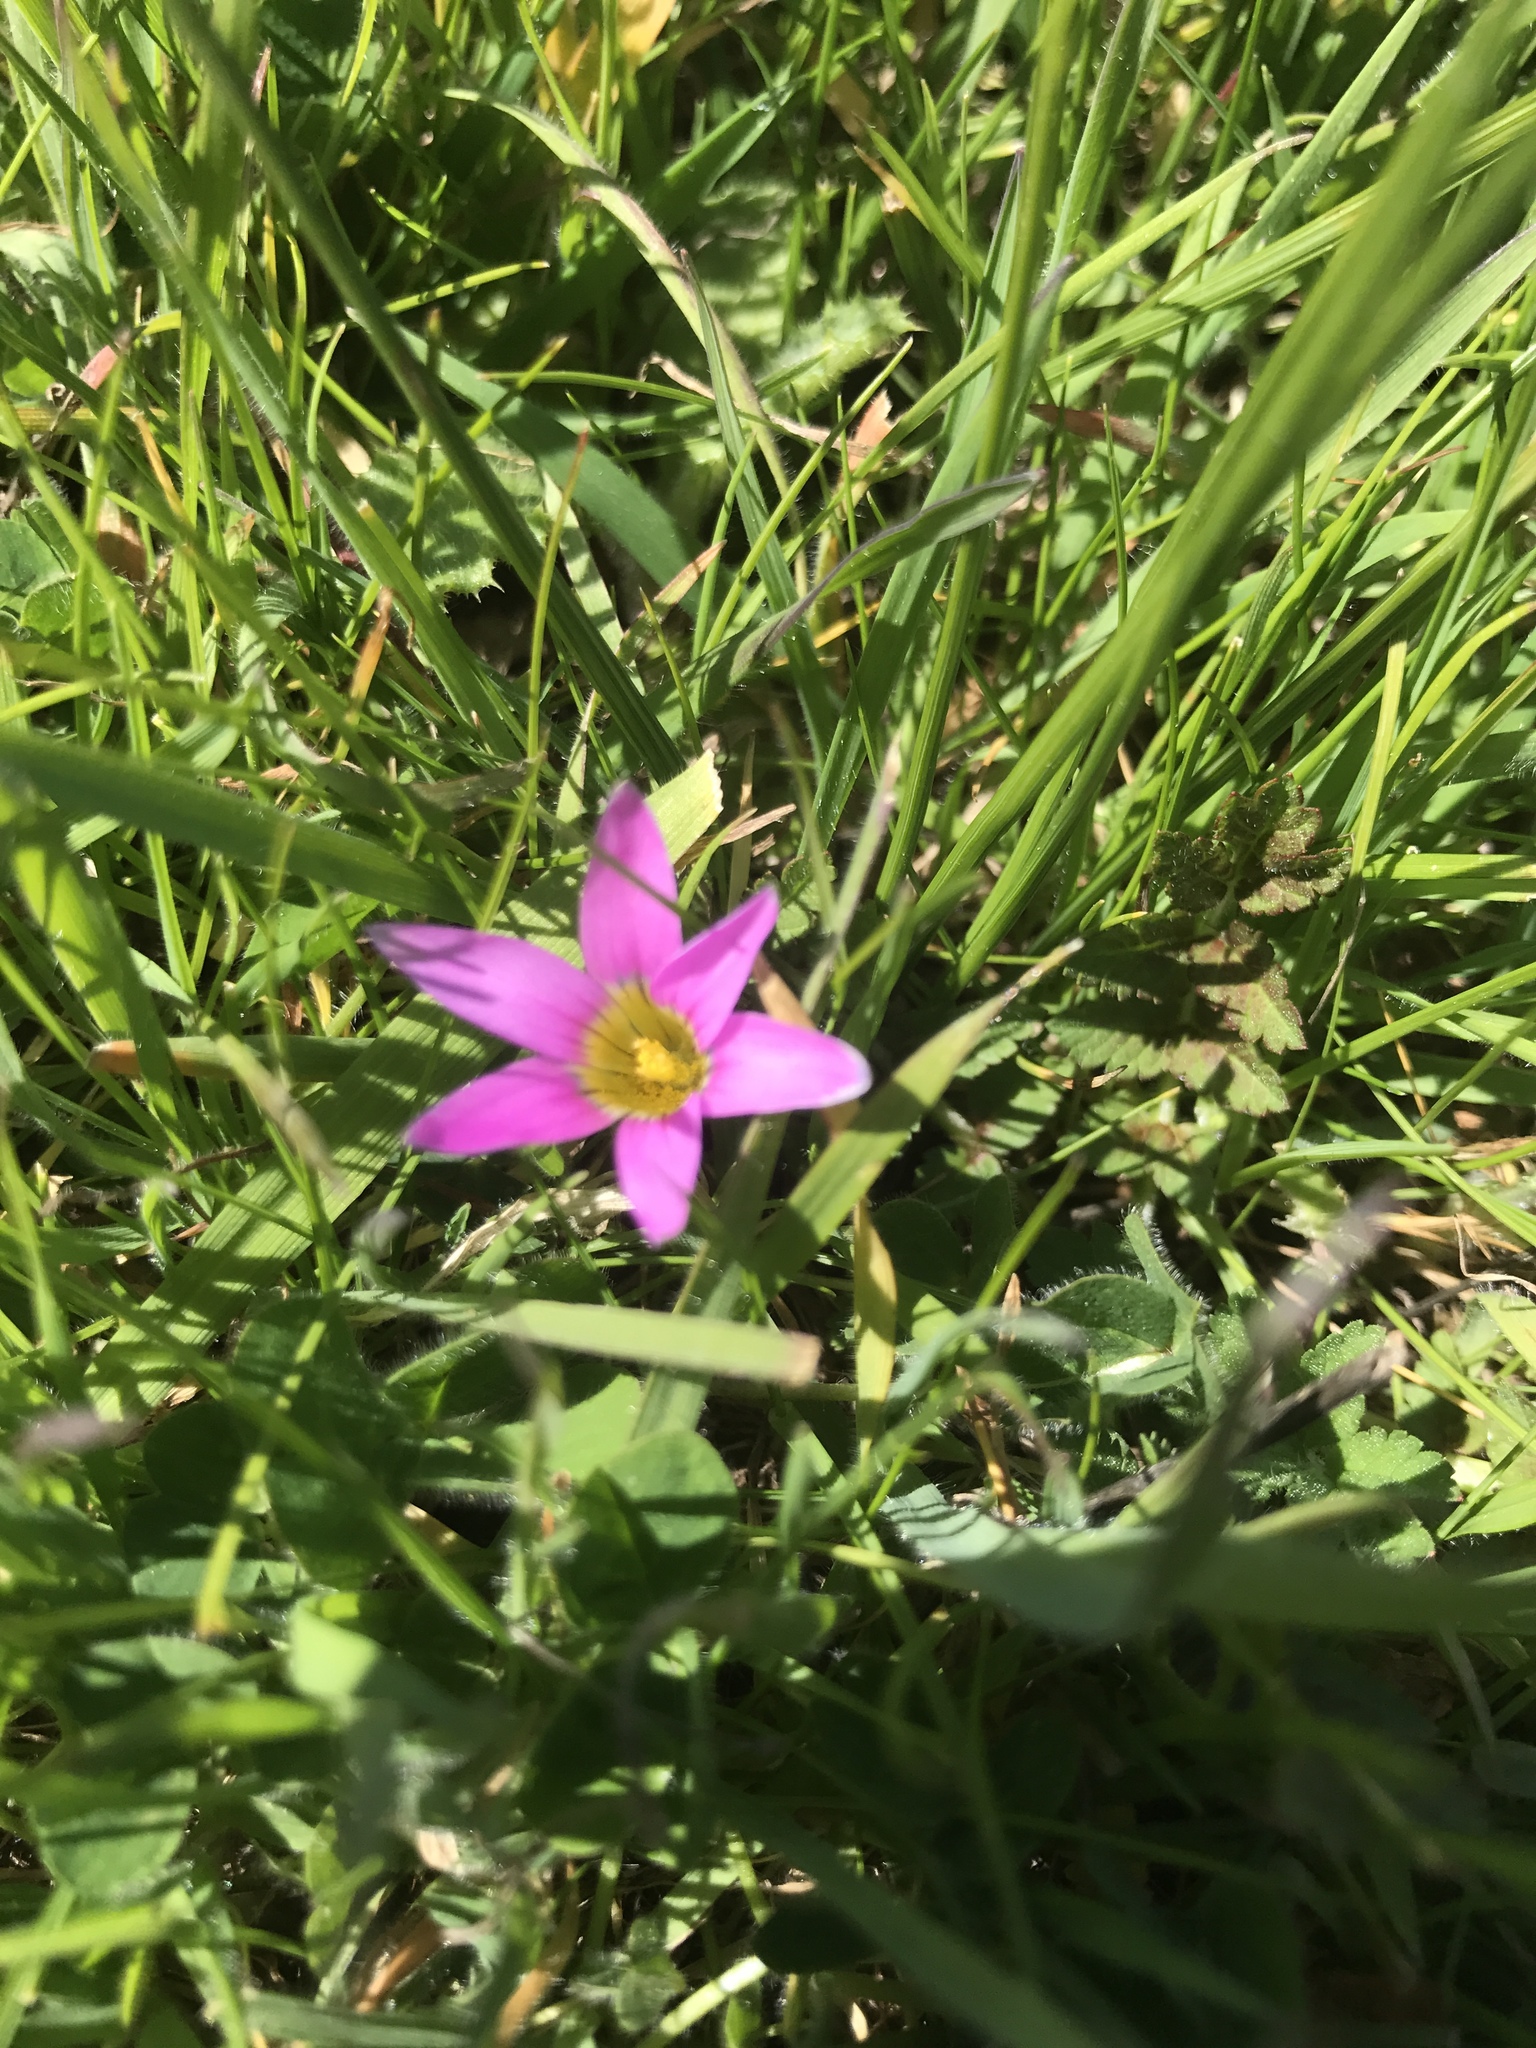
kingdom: Plantae
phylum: Tracheophyta
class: Liliopsida
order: Asparagales
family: Iridaceae
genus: Romulea
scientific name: Romulea rosea
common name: Oniongrass
